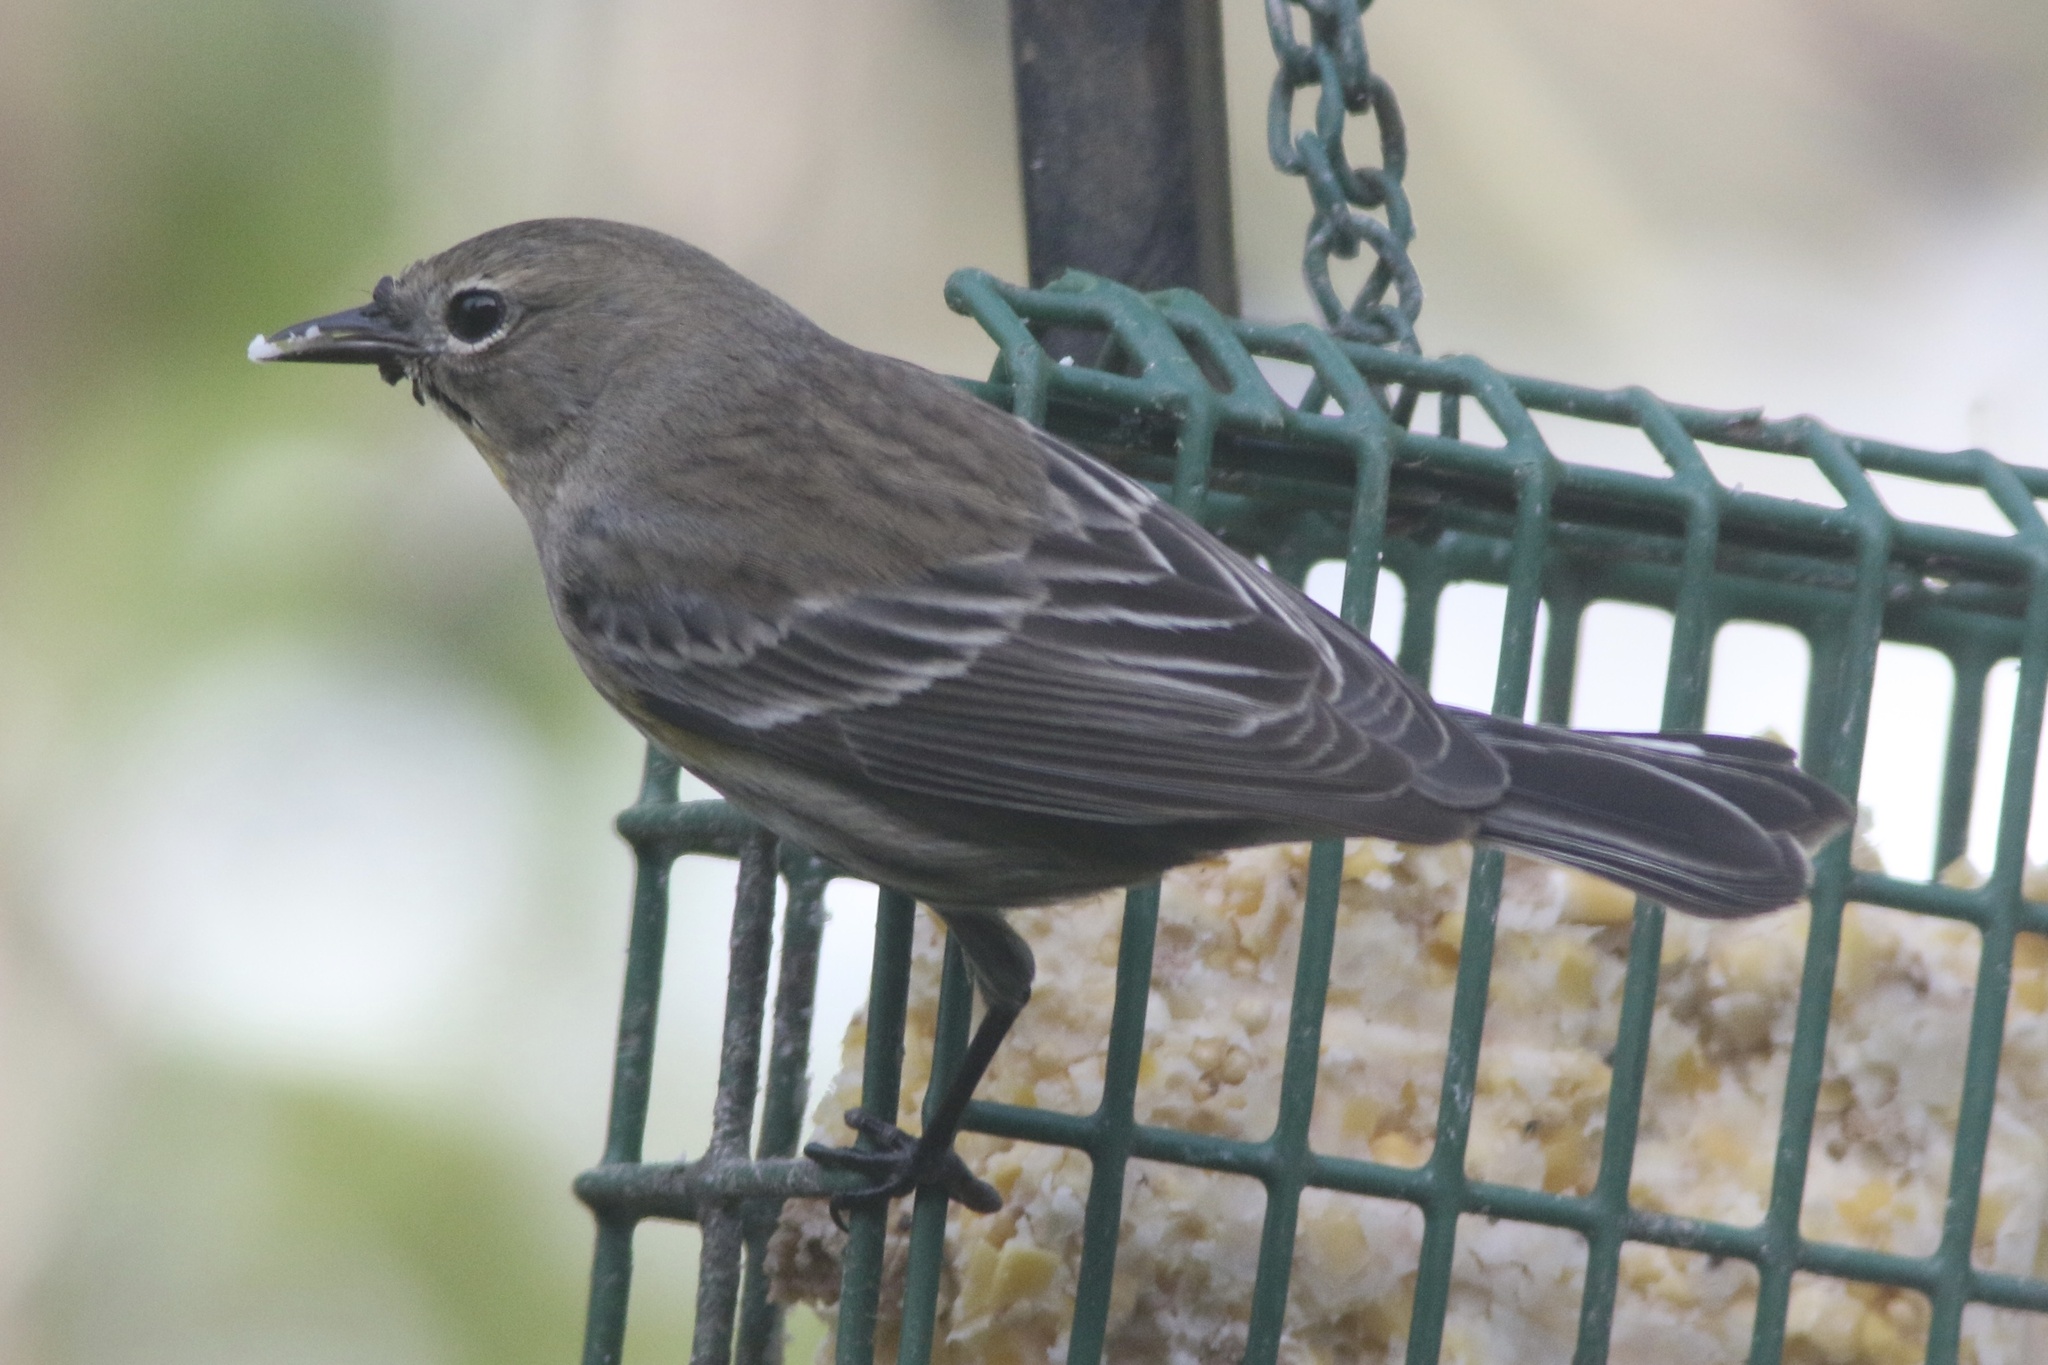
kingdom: Animalia
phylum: Chordata
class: Aves
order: Passeriformes
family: Parulidae
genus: Setophaga
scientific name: Setophaga coronata
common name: Myrtle warbler
